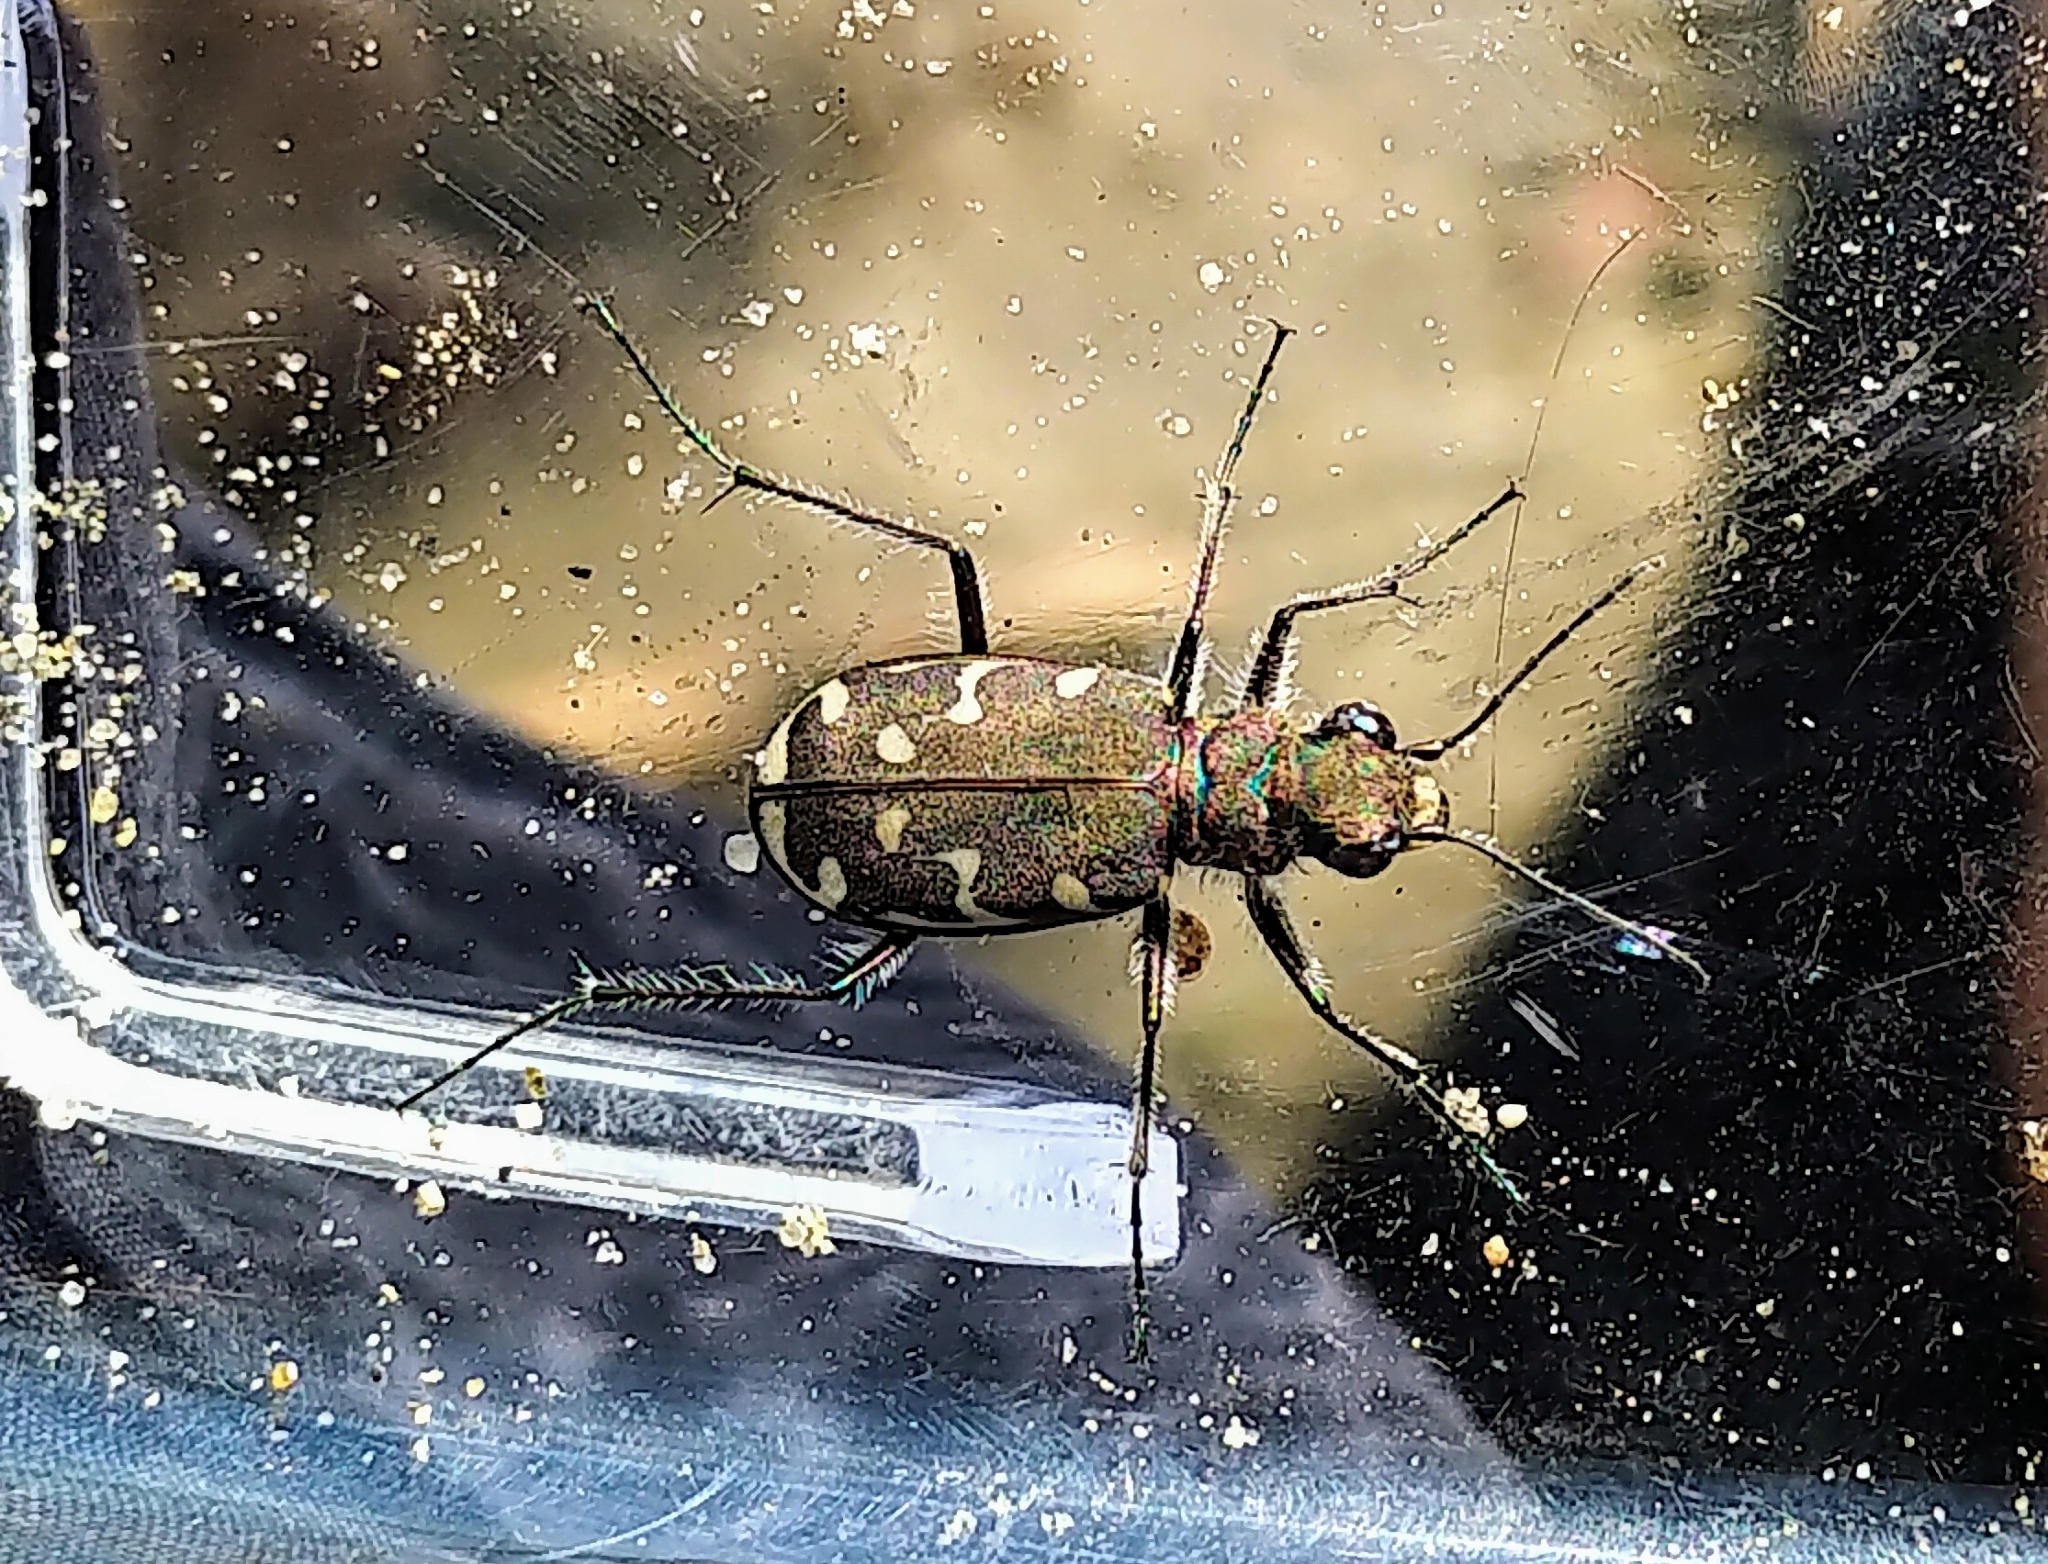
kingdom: Animalia
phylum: Arthropoda
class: Insecta
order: Coleoptera
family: Carabidae
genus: Cicindela
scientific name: Cicindela duodecimguttata
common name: Twelve-spotted tiger beetle
